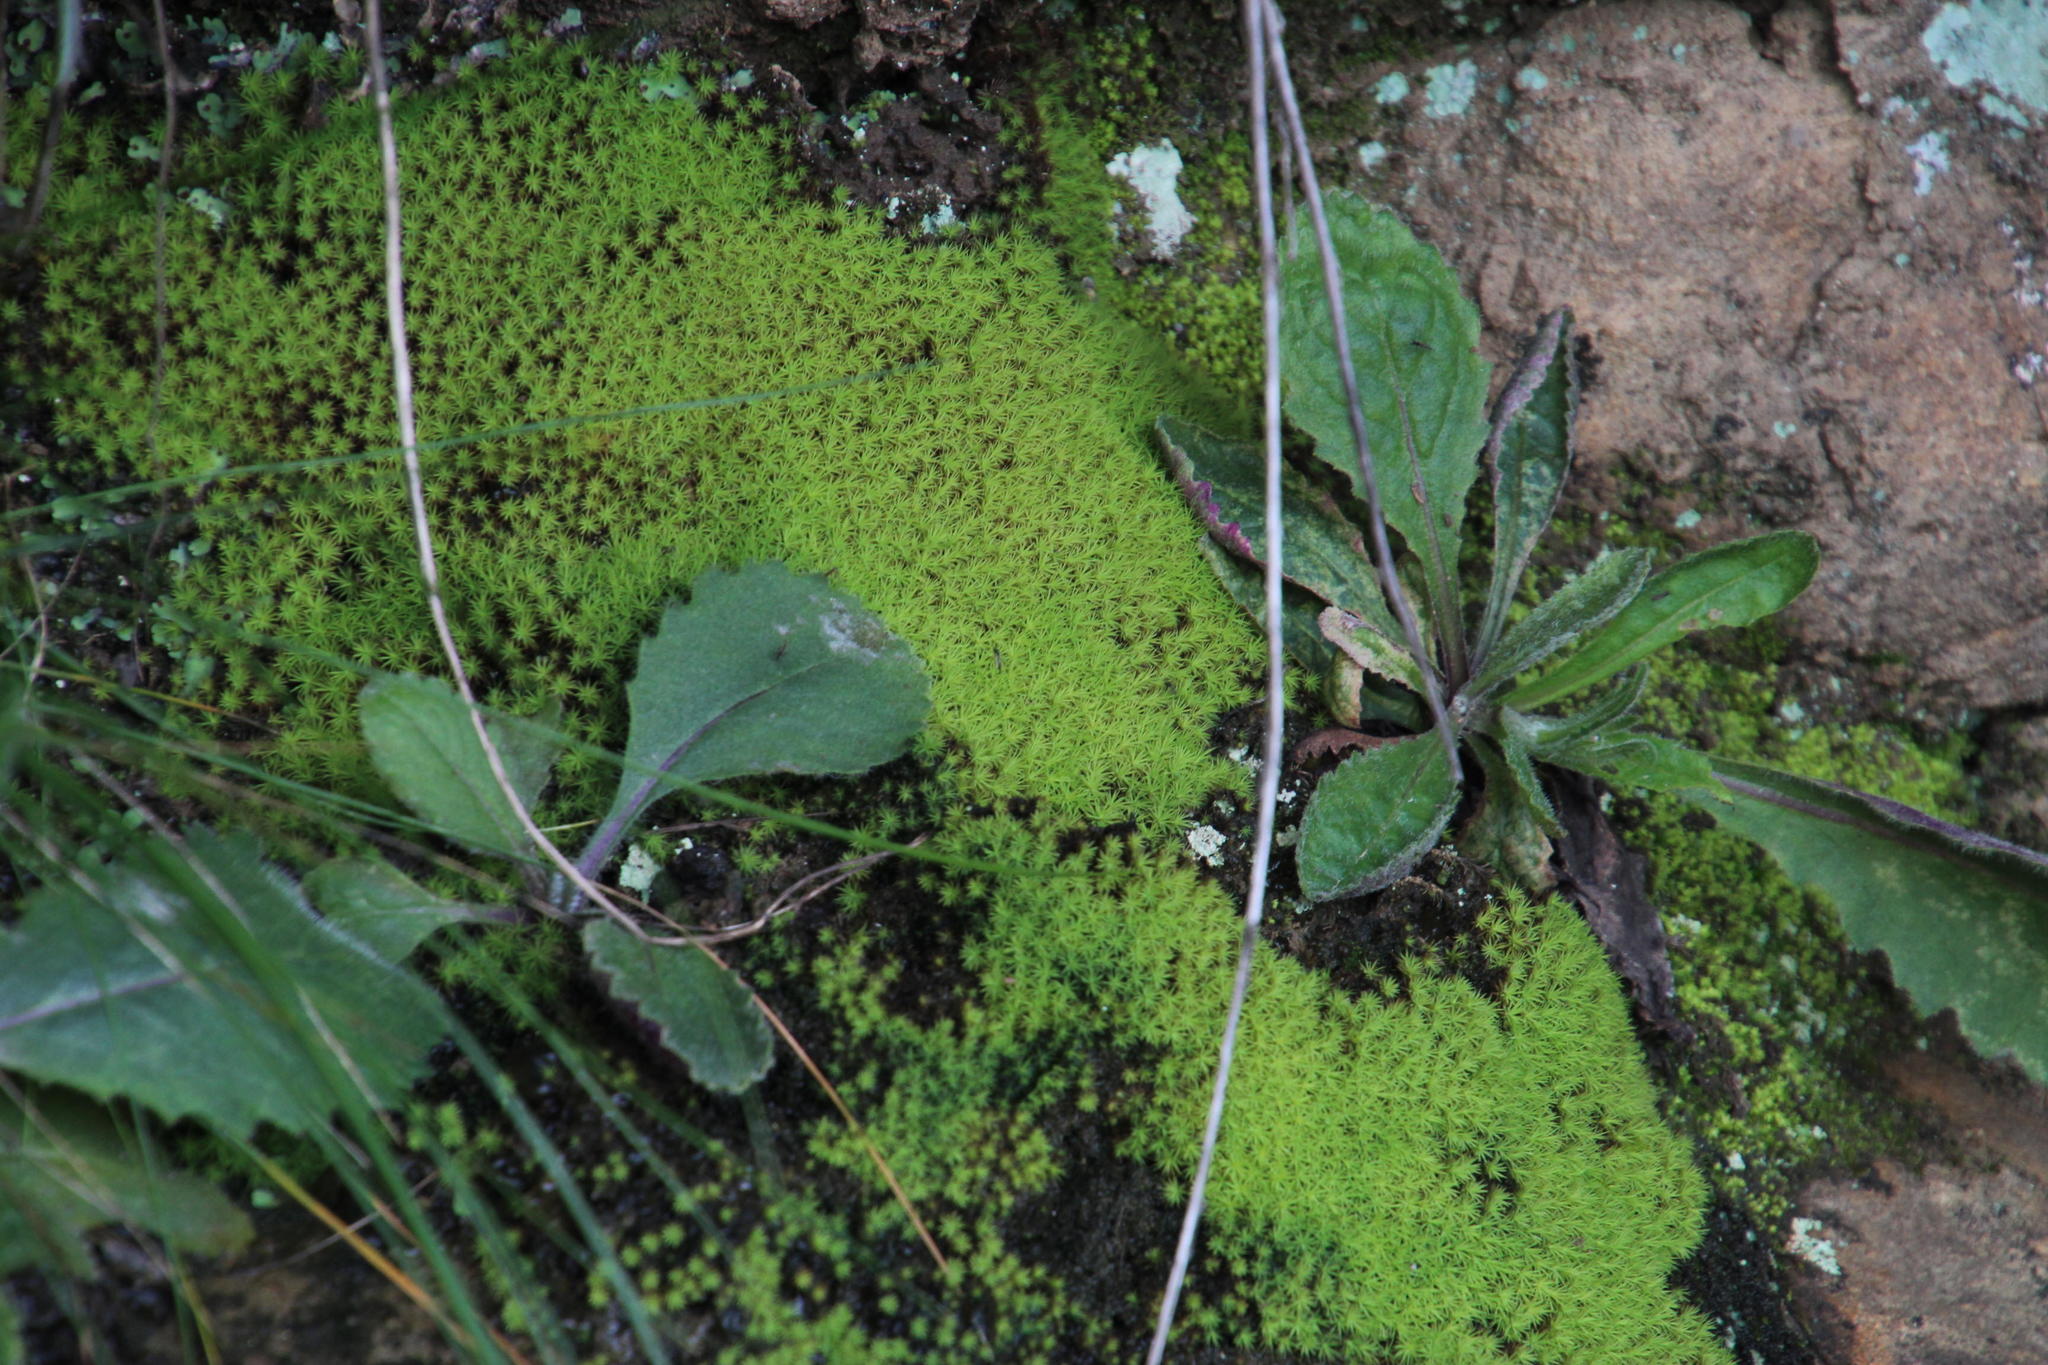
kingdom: Plantae
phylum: Bryophyta
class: Bryopsida
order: Bartramiales
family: Bartramiaceae
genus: Anacolia
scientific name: Anacolia breutelii
